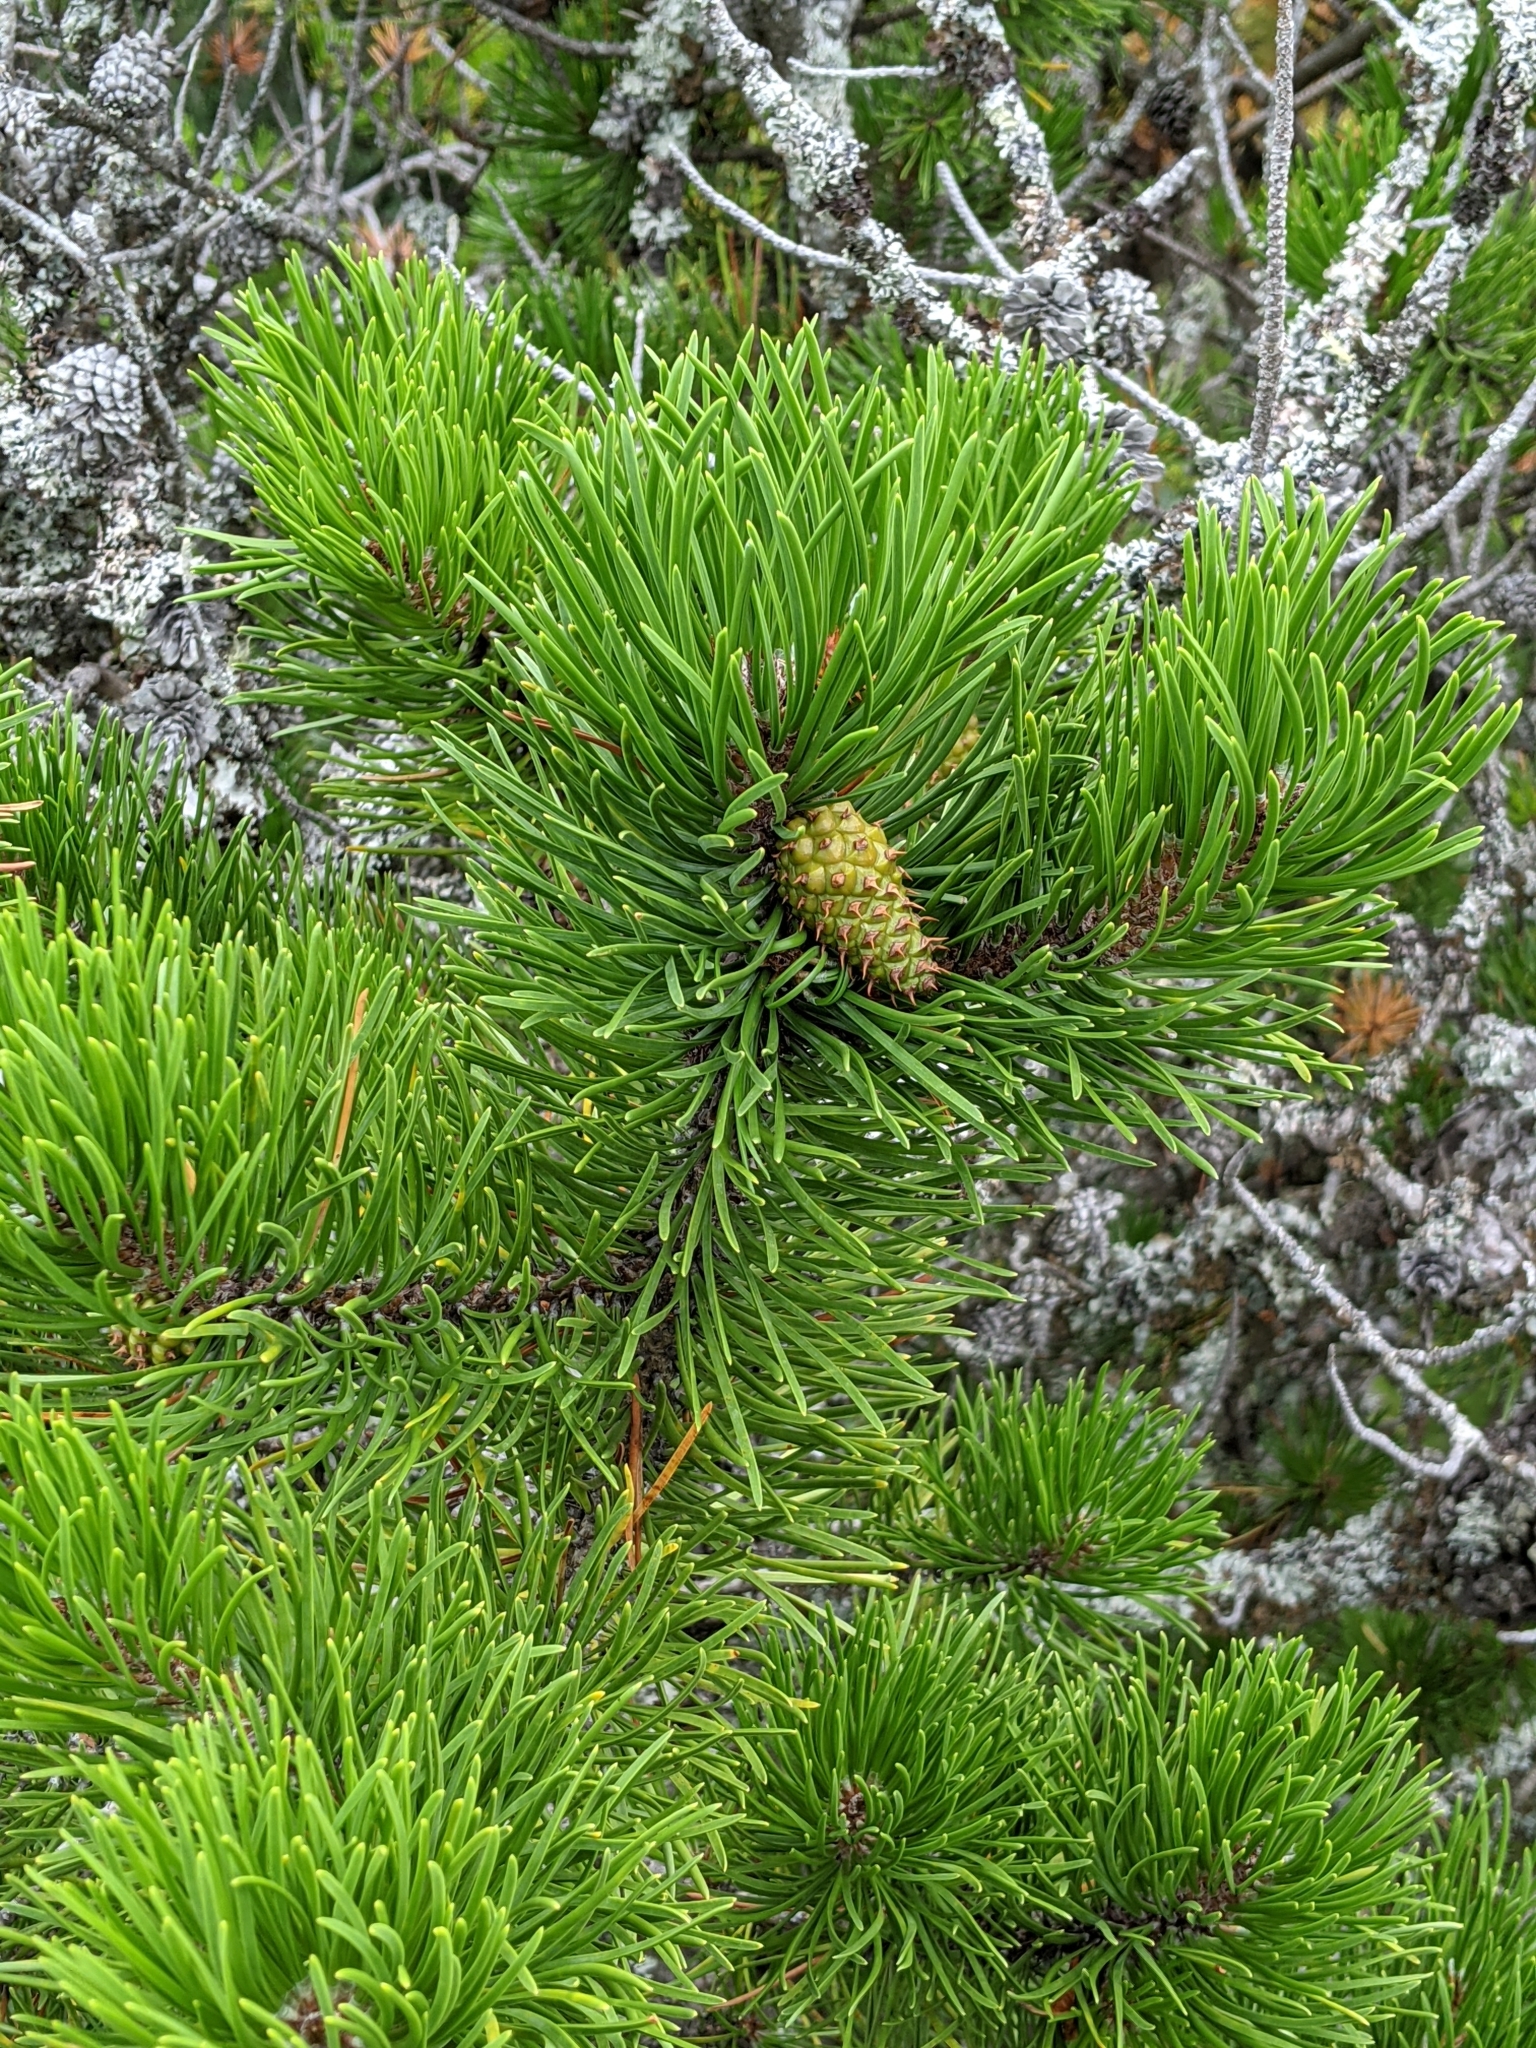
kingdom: Plantae
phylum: Tracheophyta
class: Pinopsida
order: Pinales
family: Pinaceae
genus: Pinus
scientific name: Pinus contorta
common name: Lodgepole pine
